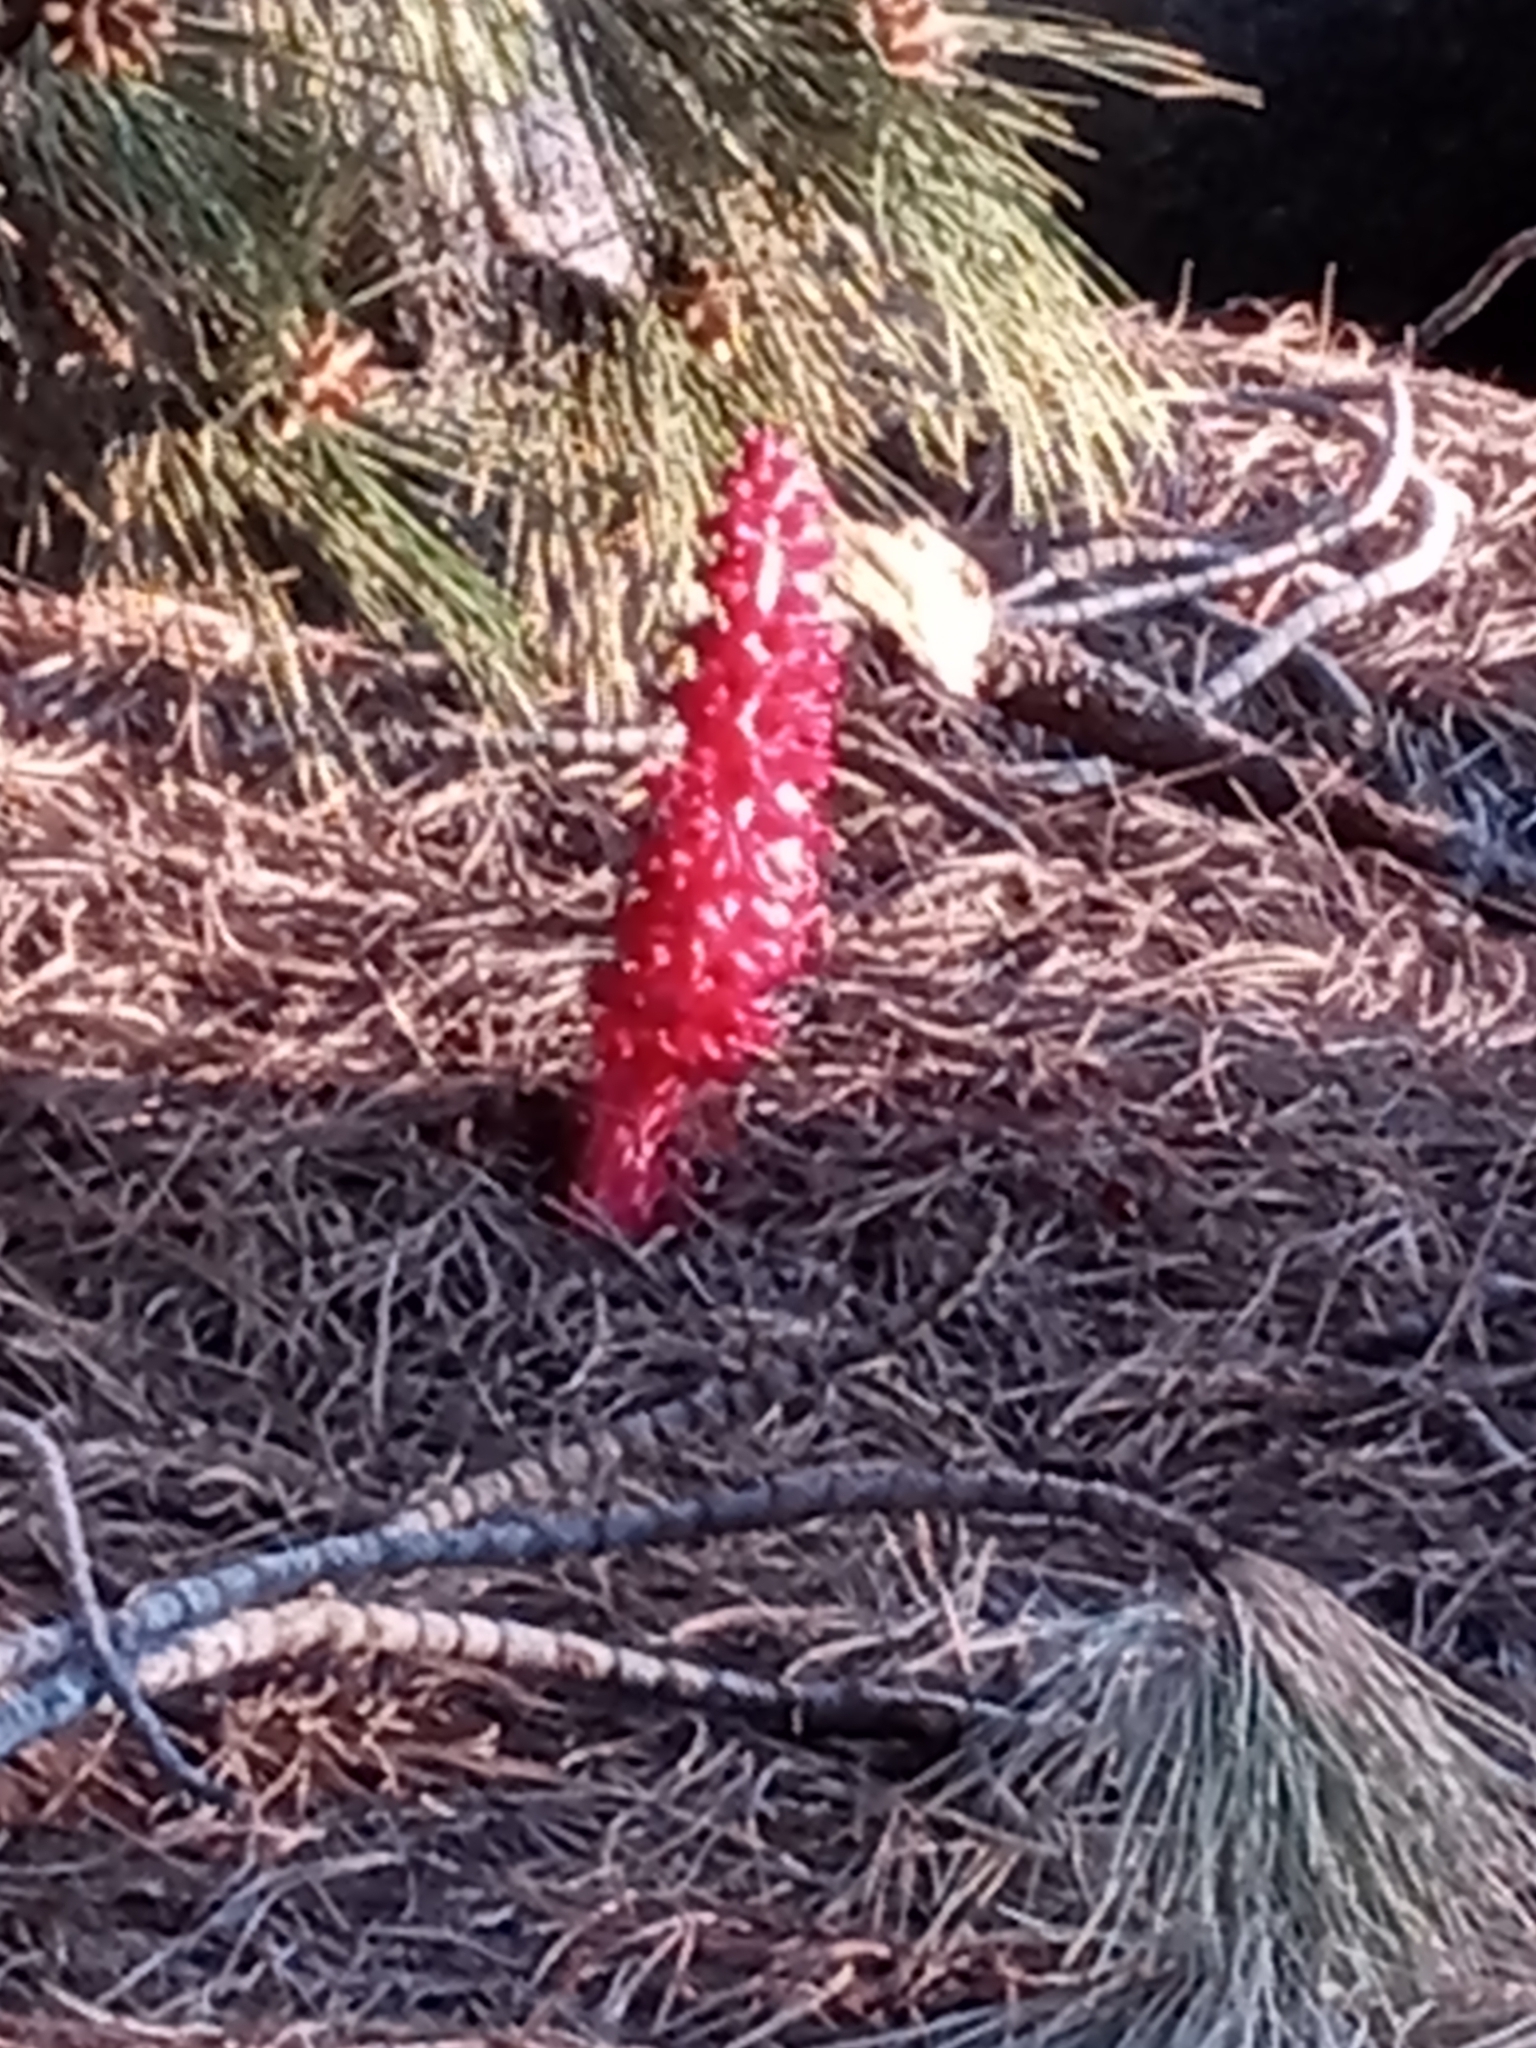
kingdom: Plantae
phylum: Tracheophyta
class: Magnoliopsida
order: Ericales
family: Ericaceae
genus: Sarcodes
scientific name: Sarcodes sanguinea
